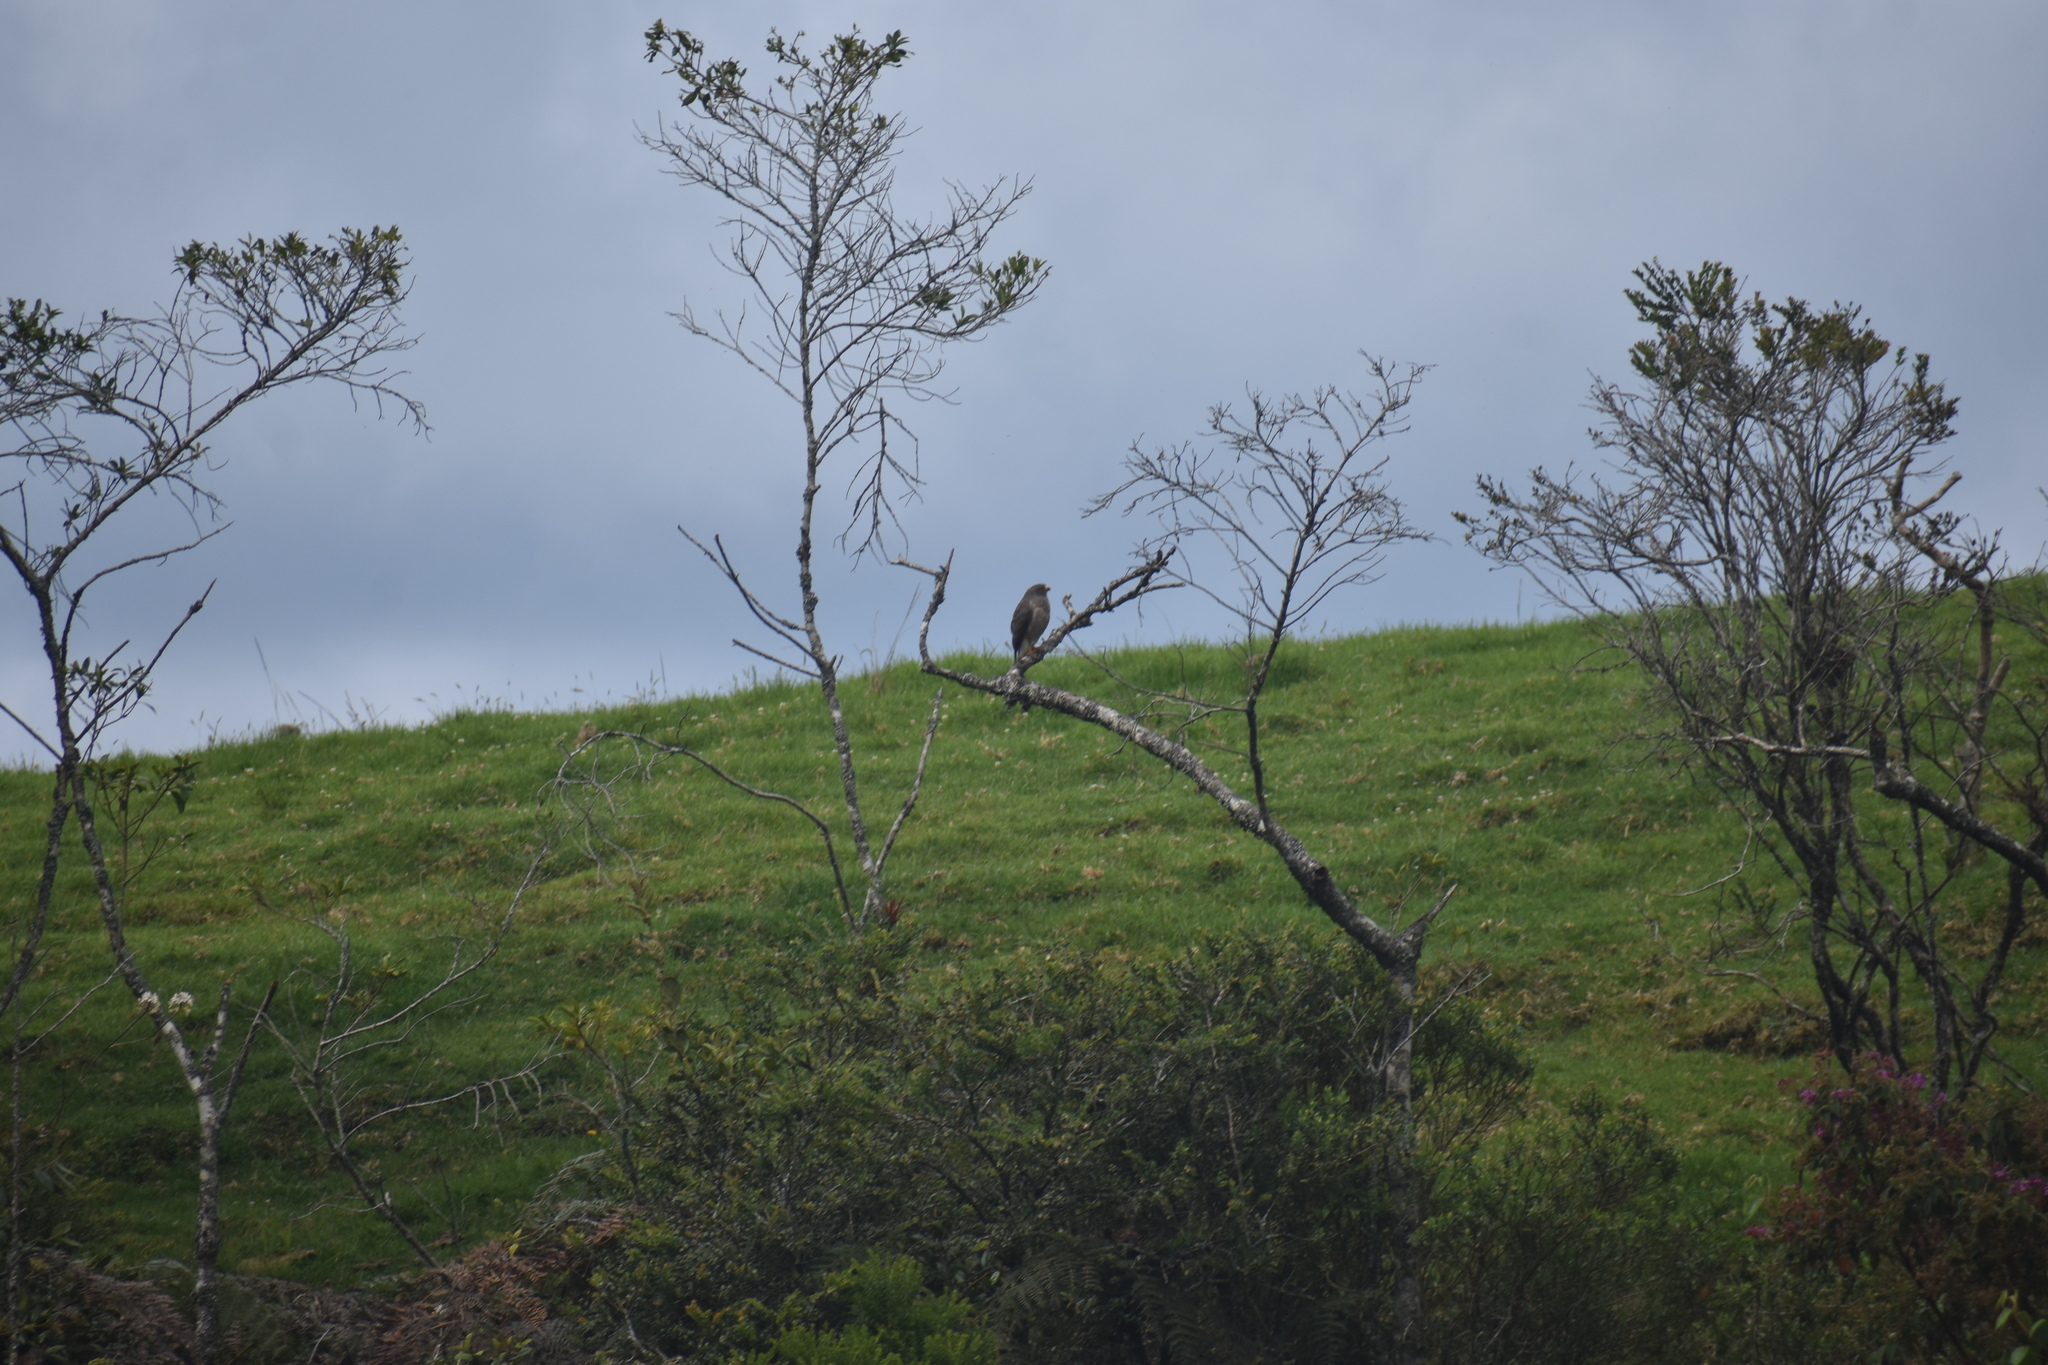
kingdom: Animalia
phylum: Chordata
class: Aves
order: Accipitriformes
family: Accipitridae
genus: Rupornis
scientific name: Rupornis magnirostris
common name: Roadside hawk
